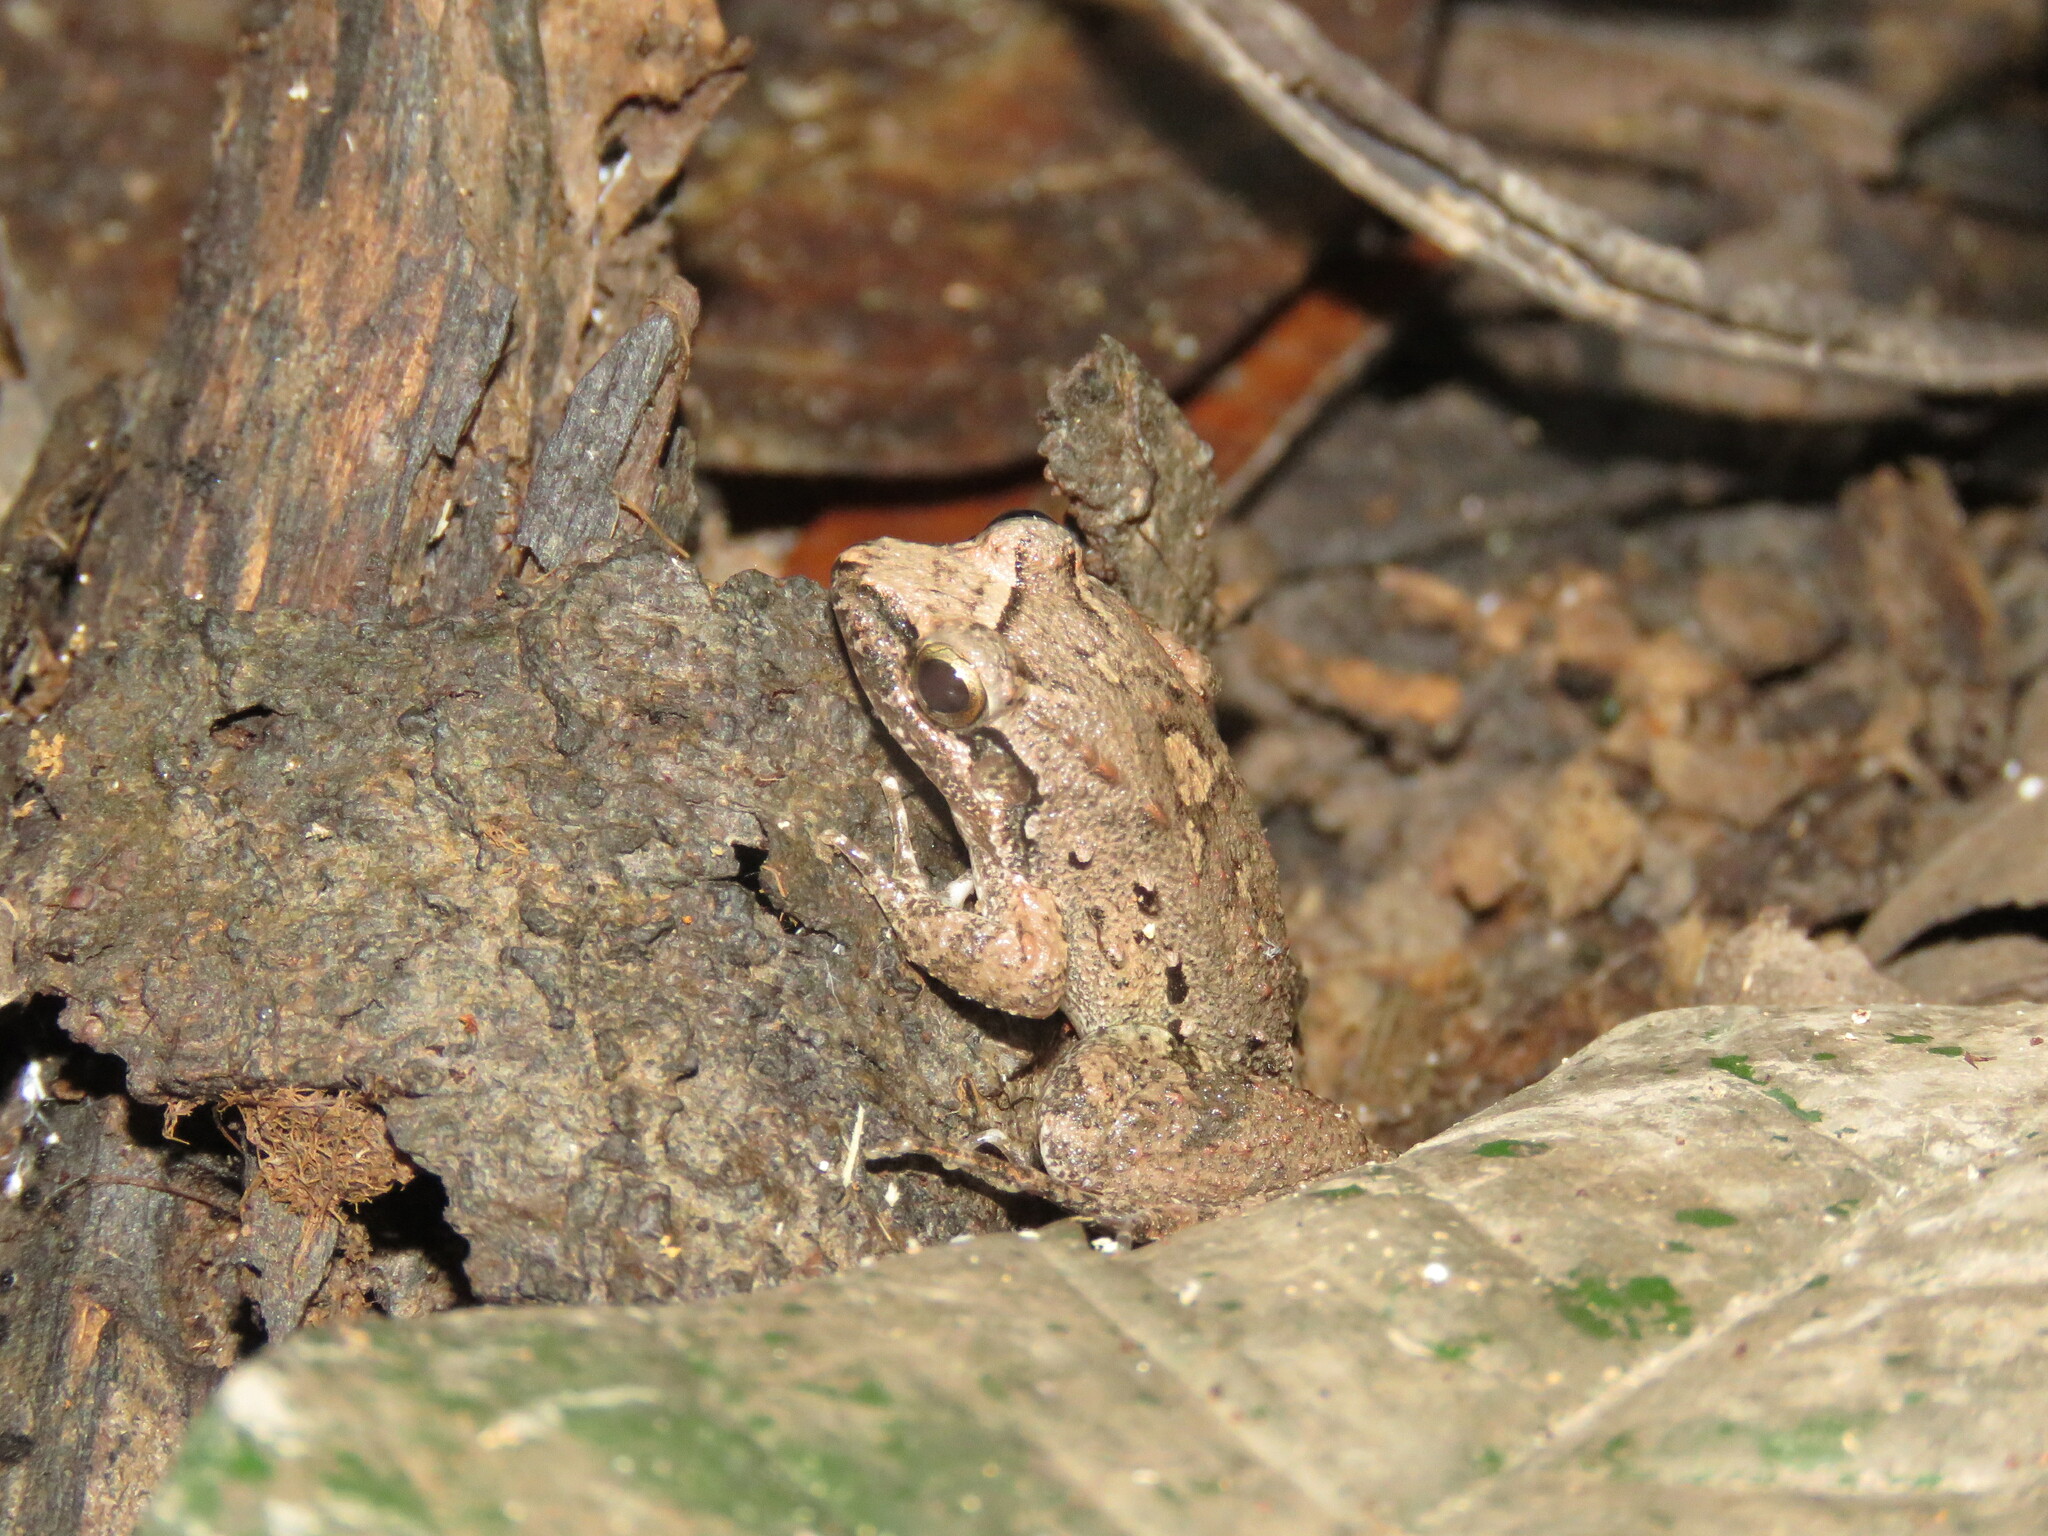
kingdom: Animalia
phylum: Chordata
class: Amphibia
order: Anura
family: Leptodactylidae
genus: Leptodactylus
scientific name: Leptodactylus leptodactyloides
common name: Common thin-toed frog
